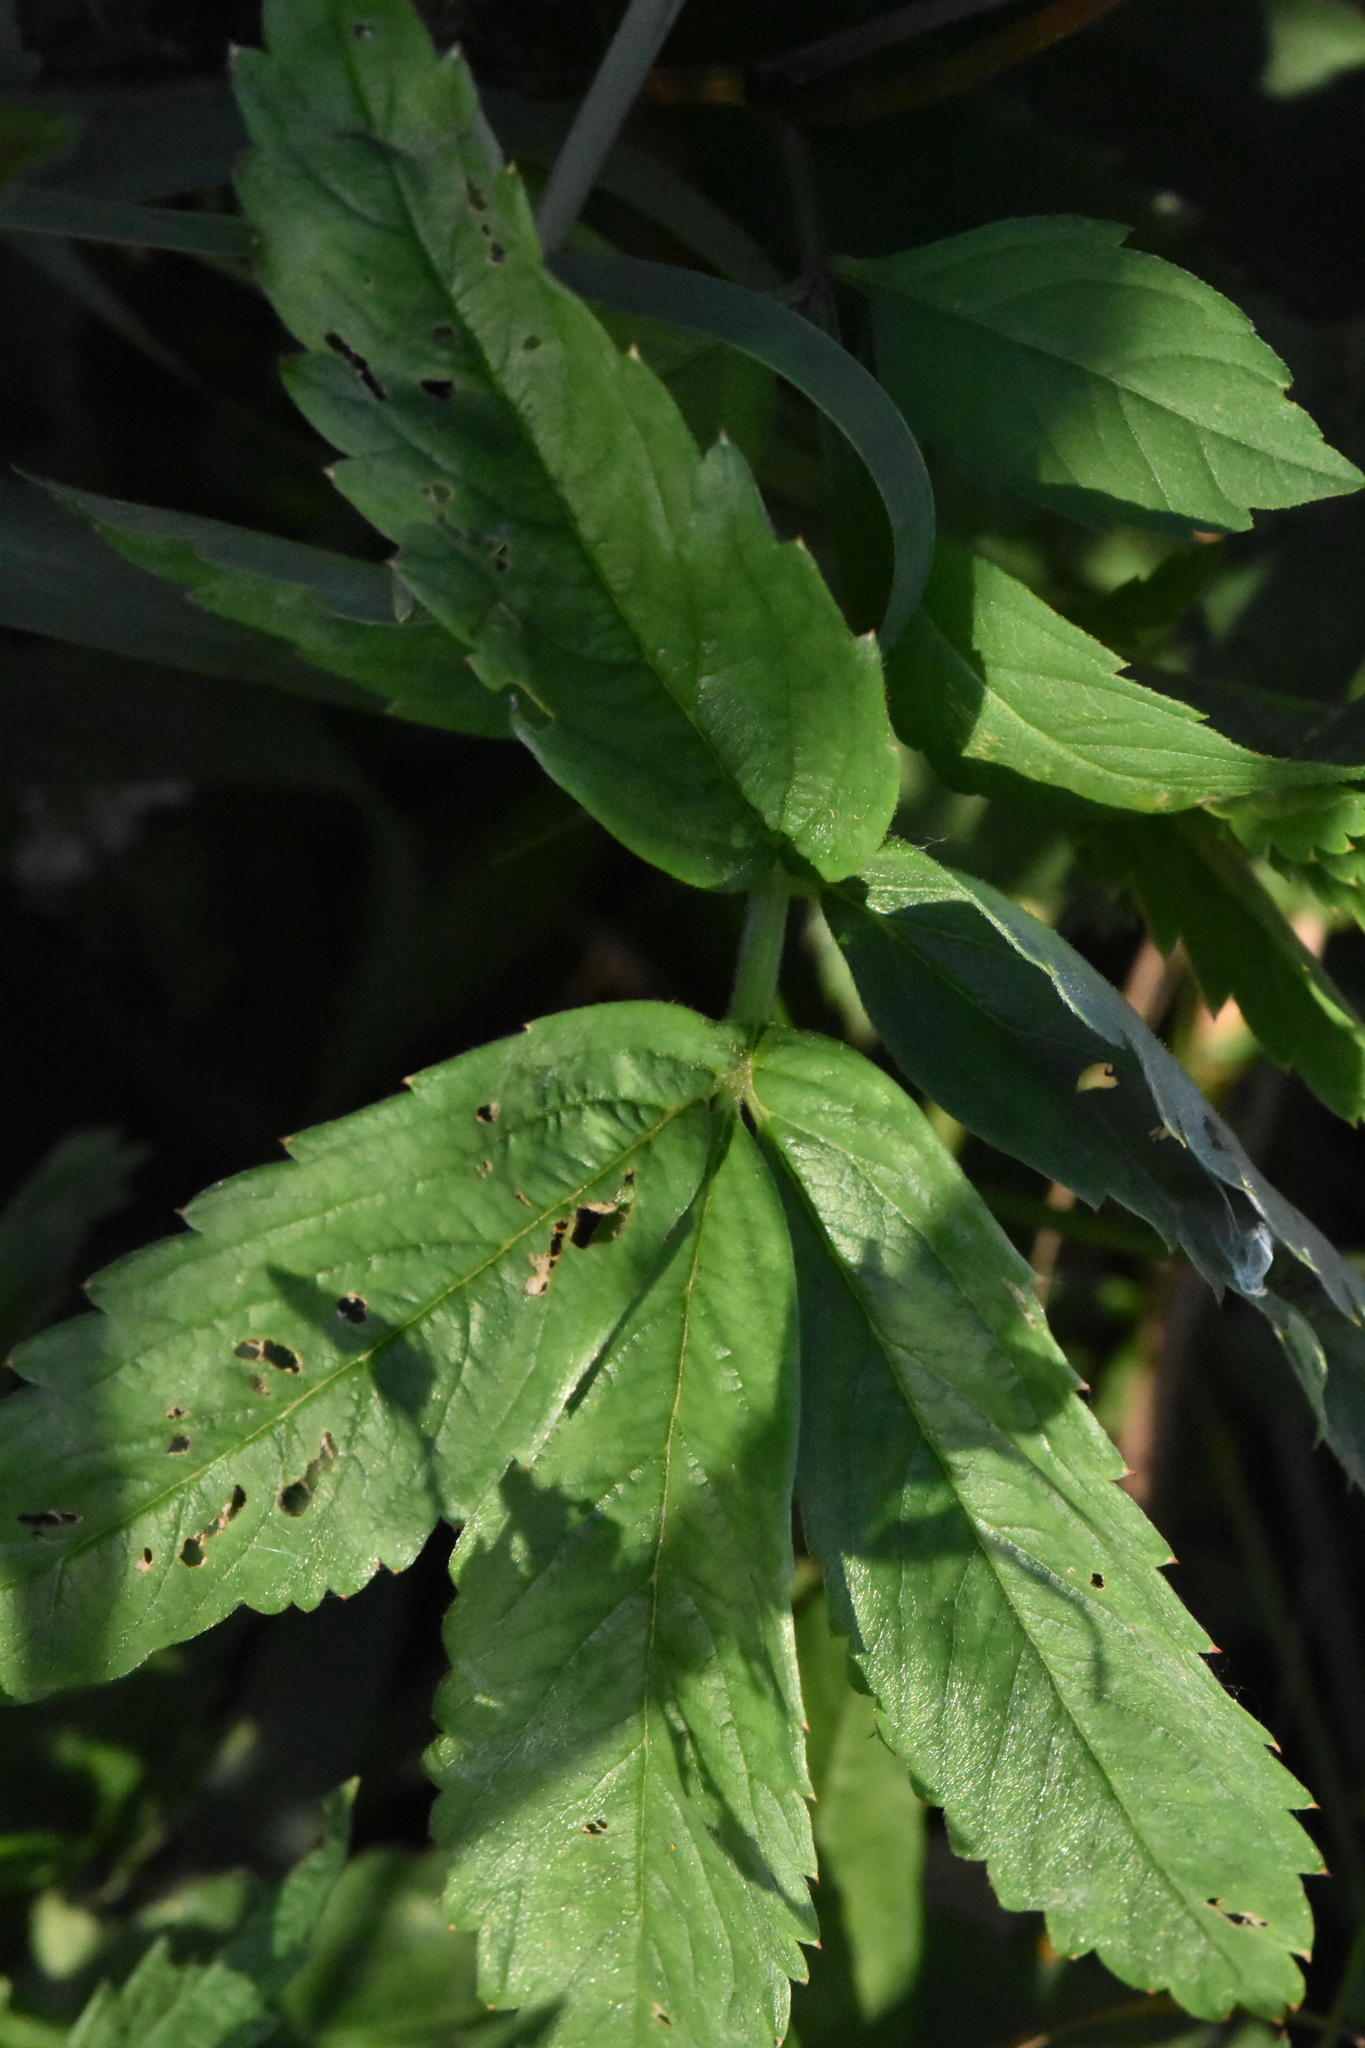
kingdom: Plantae
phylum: Tracheophyta
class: Magnoliopsida
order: Rosales
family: Rosaceae
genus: Comarum
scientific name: Comarum palustre
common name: Marsh cinquefoil
